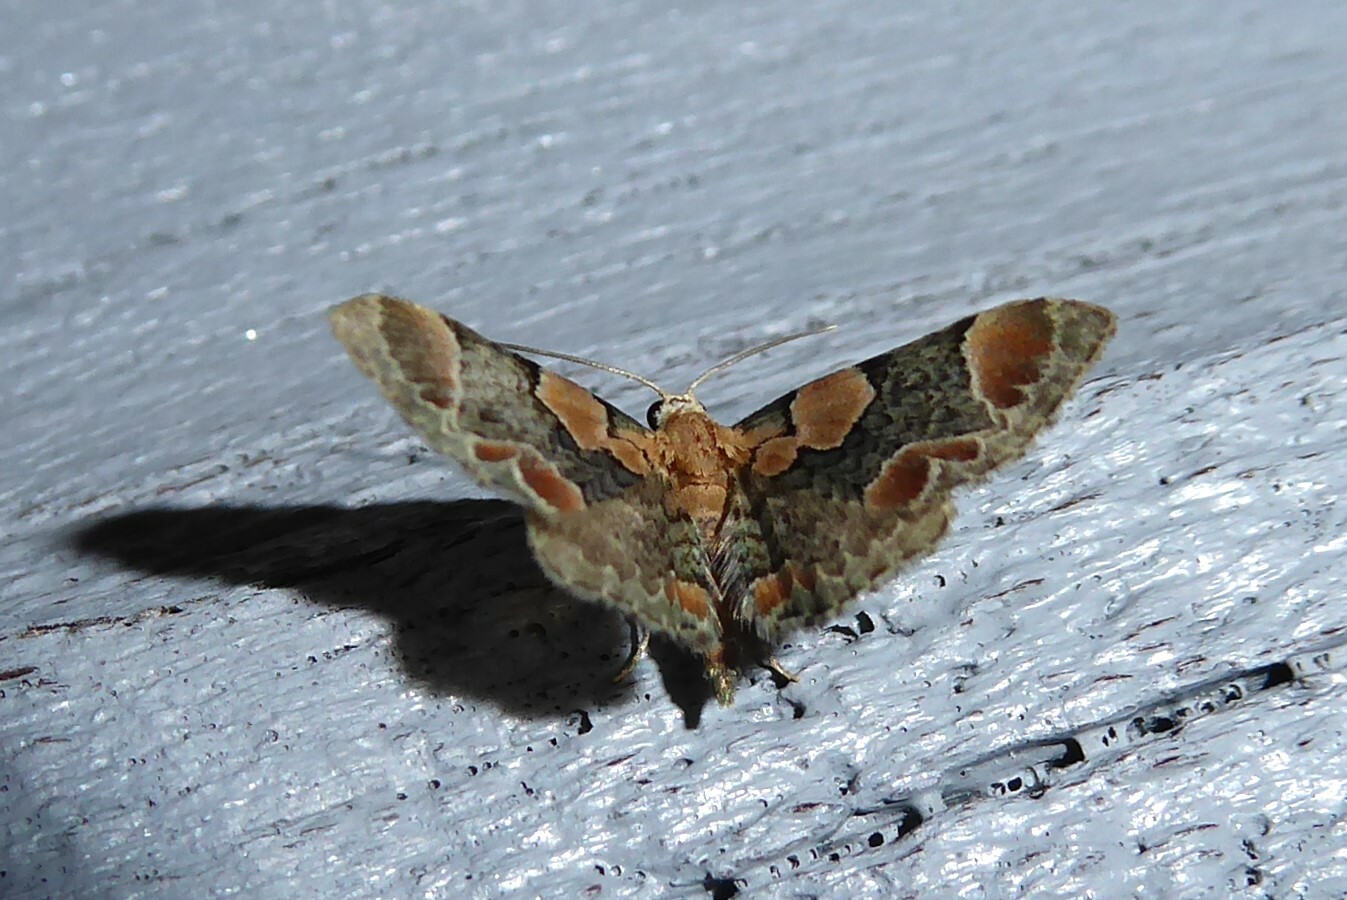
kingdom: Animalia
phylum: Arthropoda
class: Insecta
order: Lepidoptera
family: Geometridae
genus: Chloroclystis
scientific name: Chloroclystis
